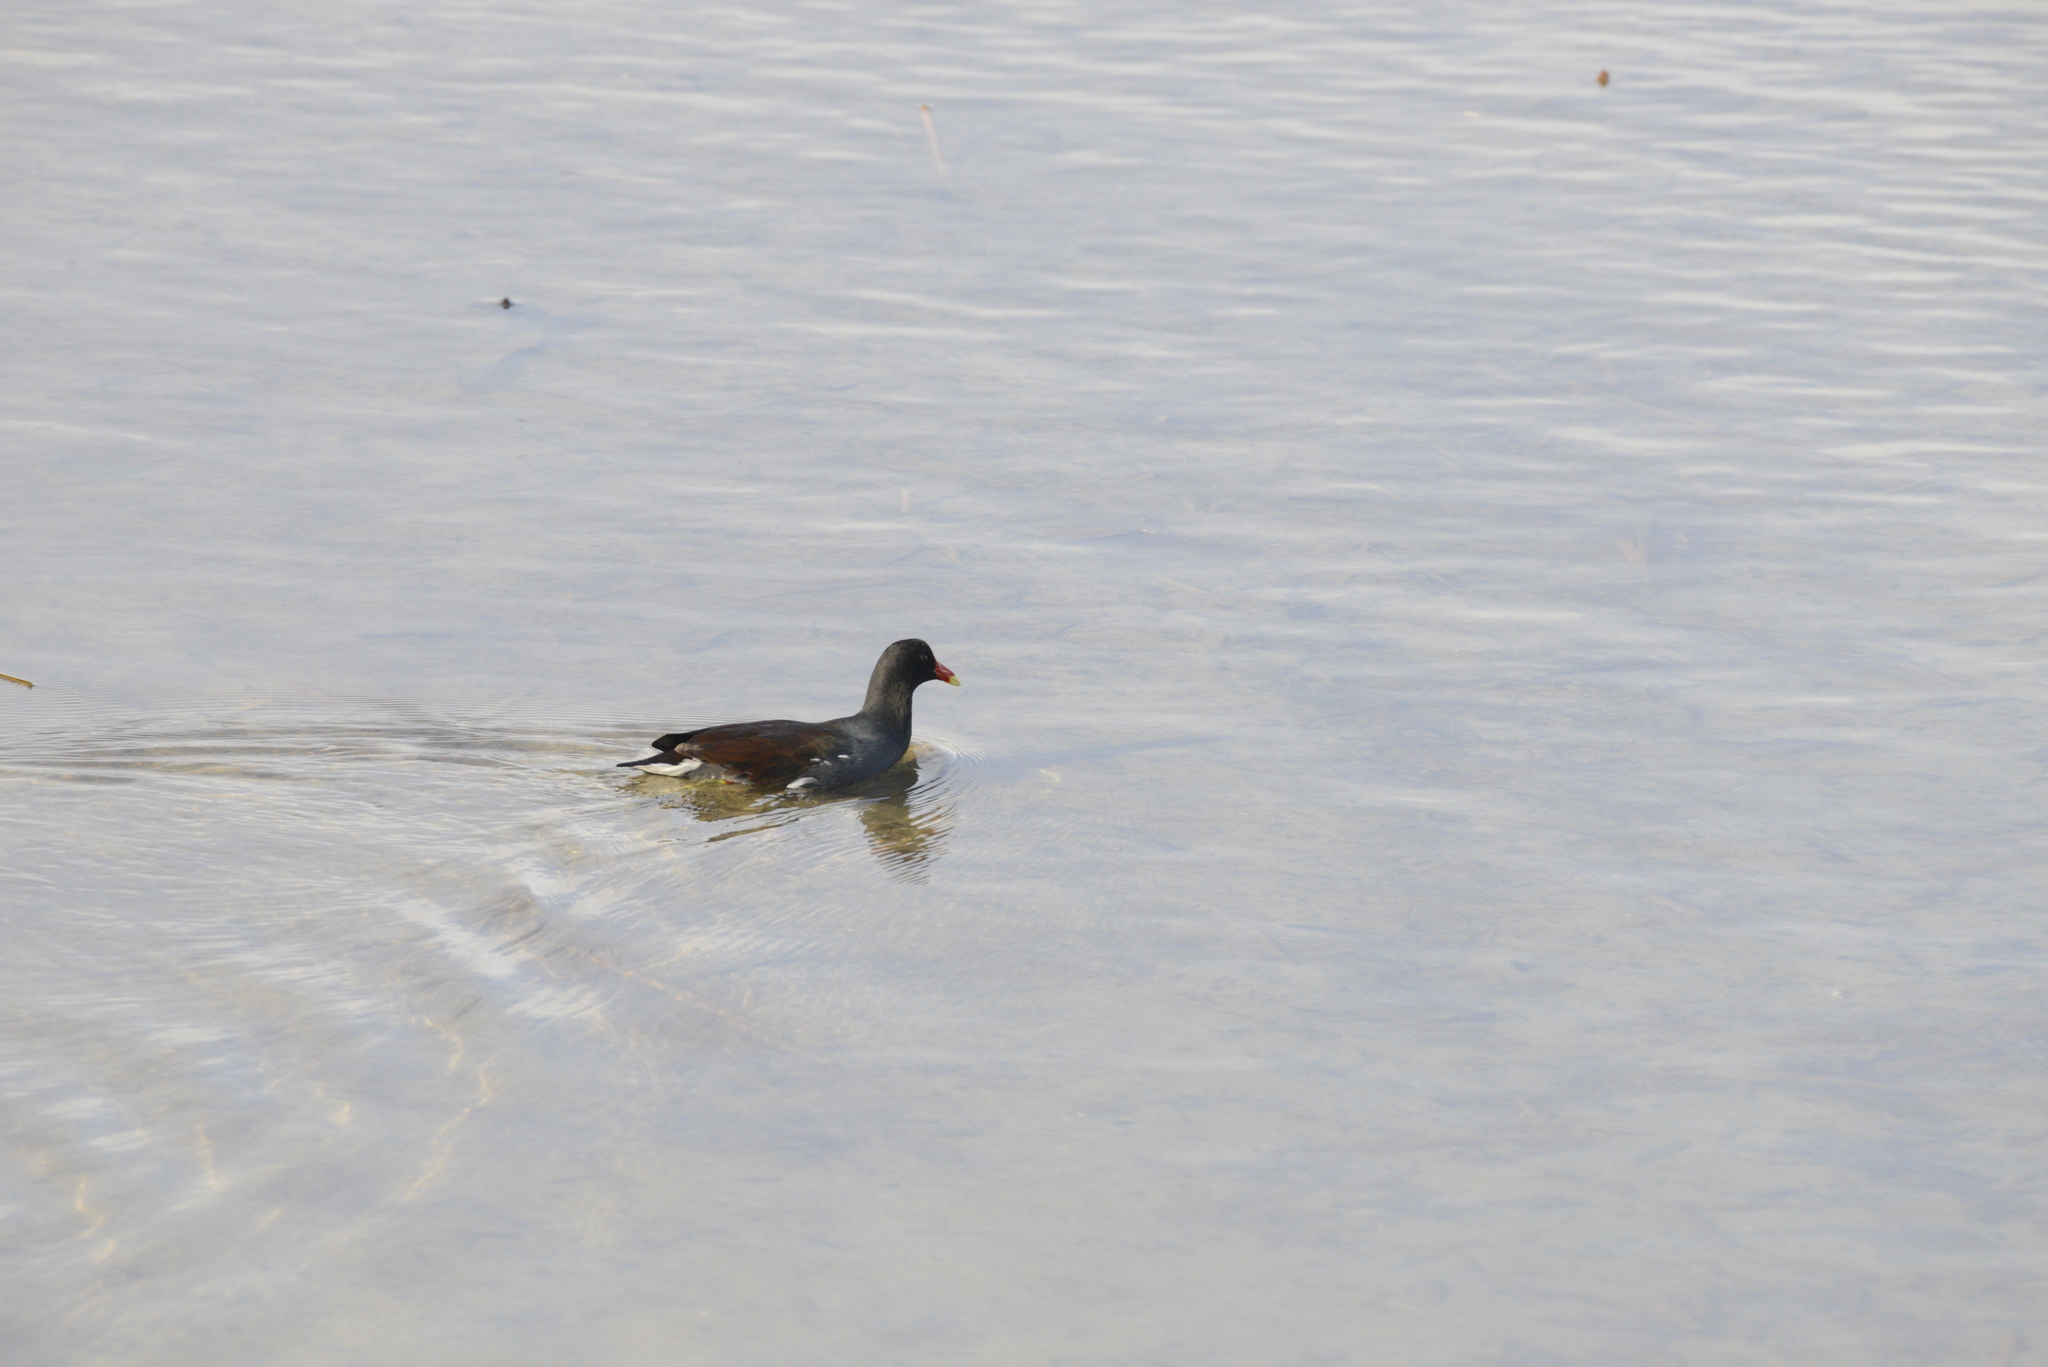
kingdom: Animalia
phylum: Chordata
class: Aves
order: Gruiformes
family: Rallidae
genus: Gallinula
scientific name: Gallinula chloropus
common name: Common moorhen
